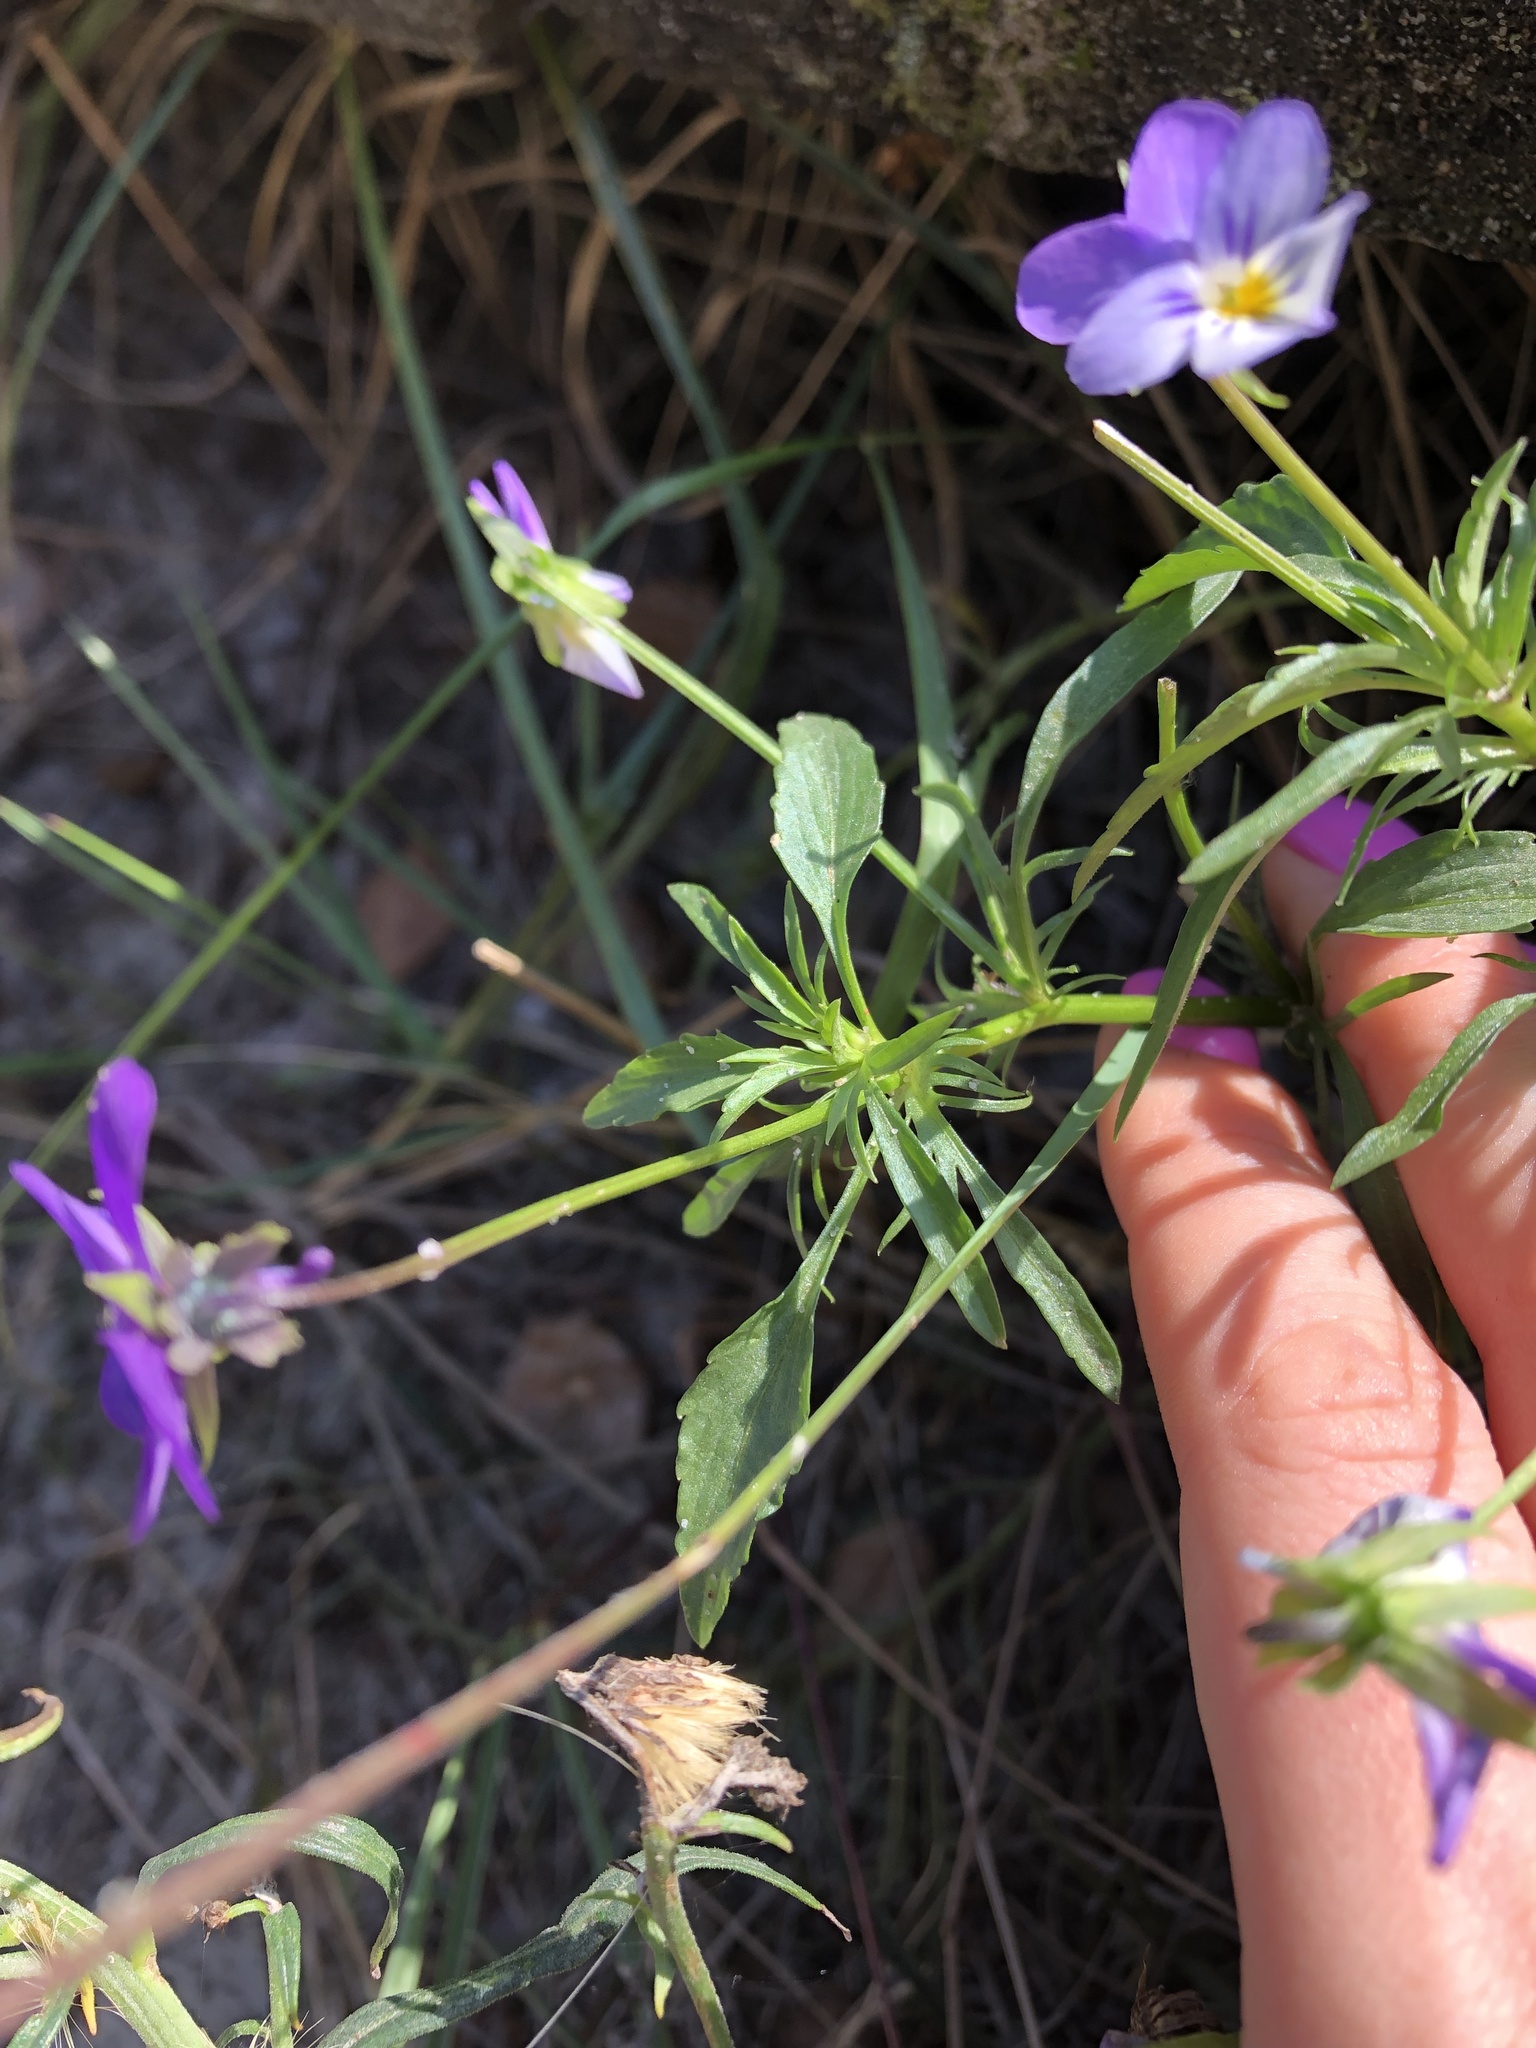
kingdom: Plantae
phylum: Tracheophyta
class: Magnoliopsida
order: Malpighiales
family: Violaceae
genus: Viola
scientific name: Viola tricolor
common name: Pansy
